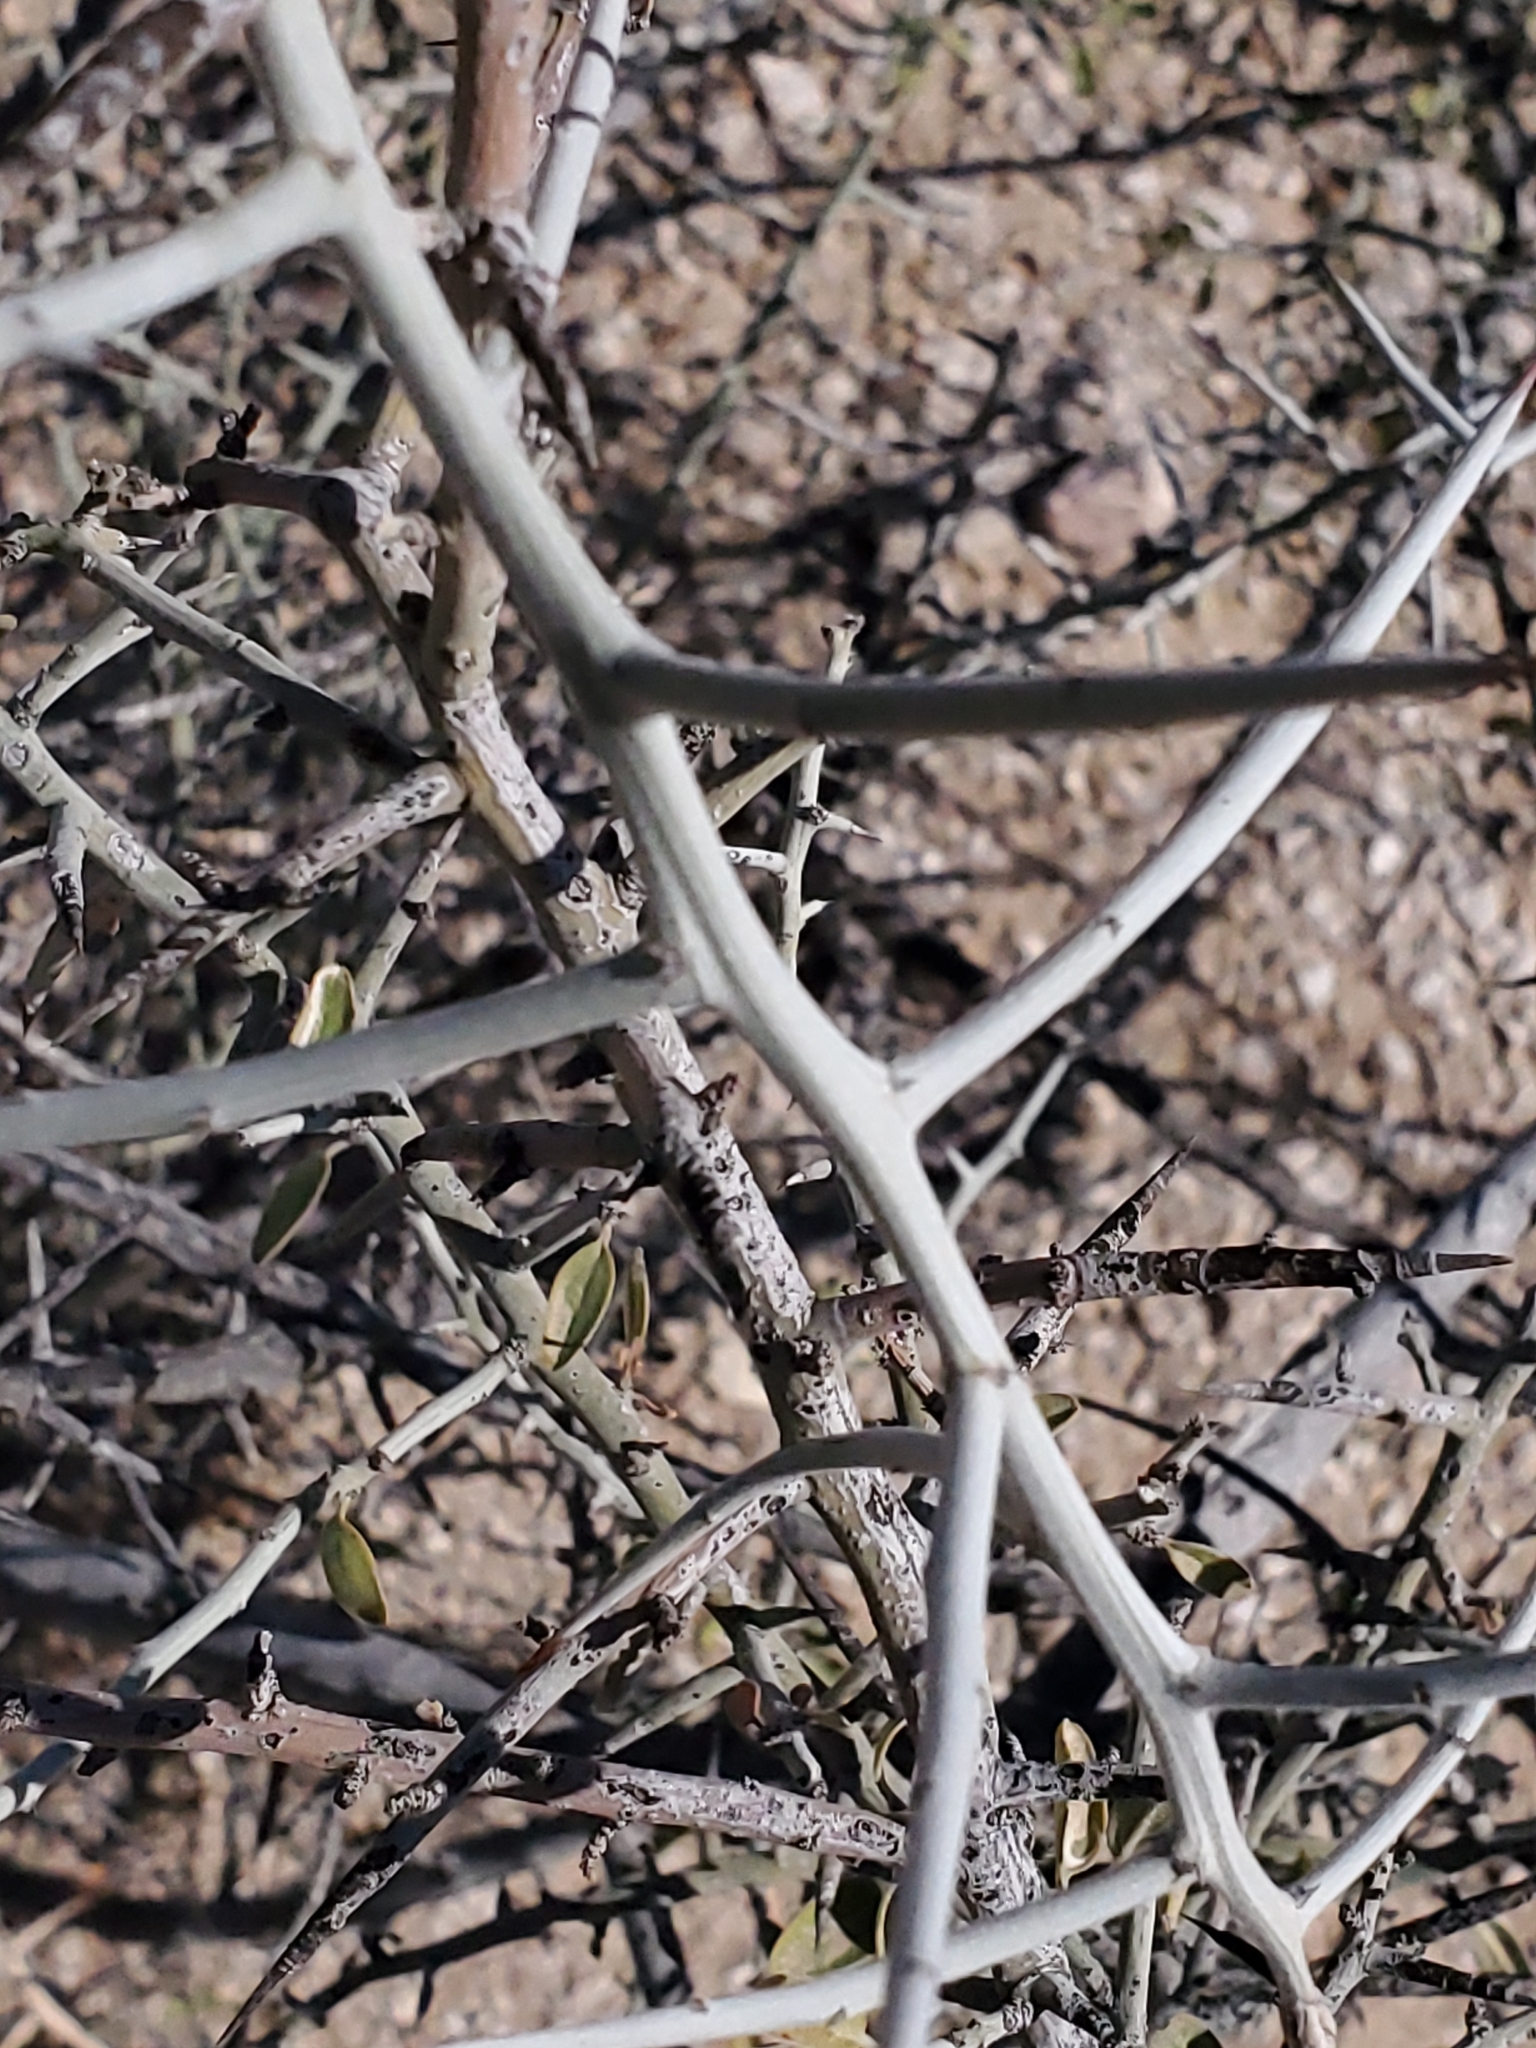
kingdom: Plantae
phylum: Tracheophyta
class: Magnoliopsida
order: Rosales
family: Rhamnaceae
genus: Sarcomphalus
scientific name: Sarcomphalus obtusifolius
